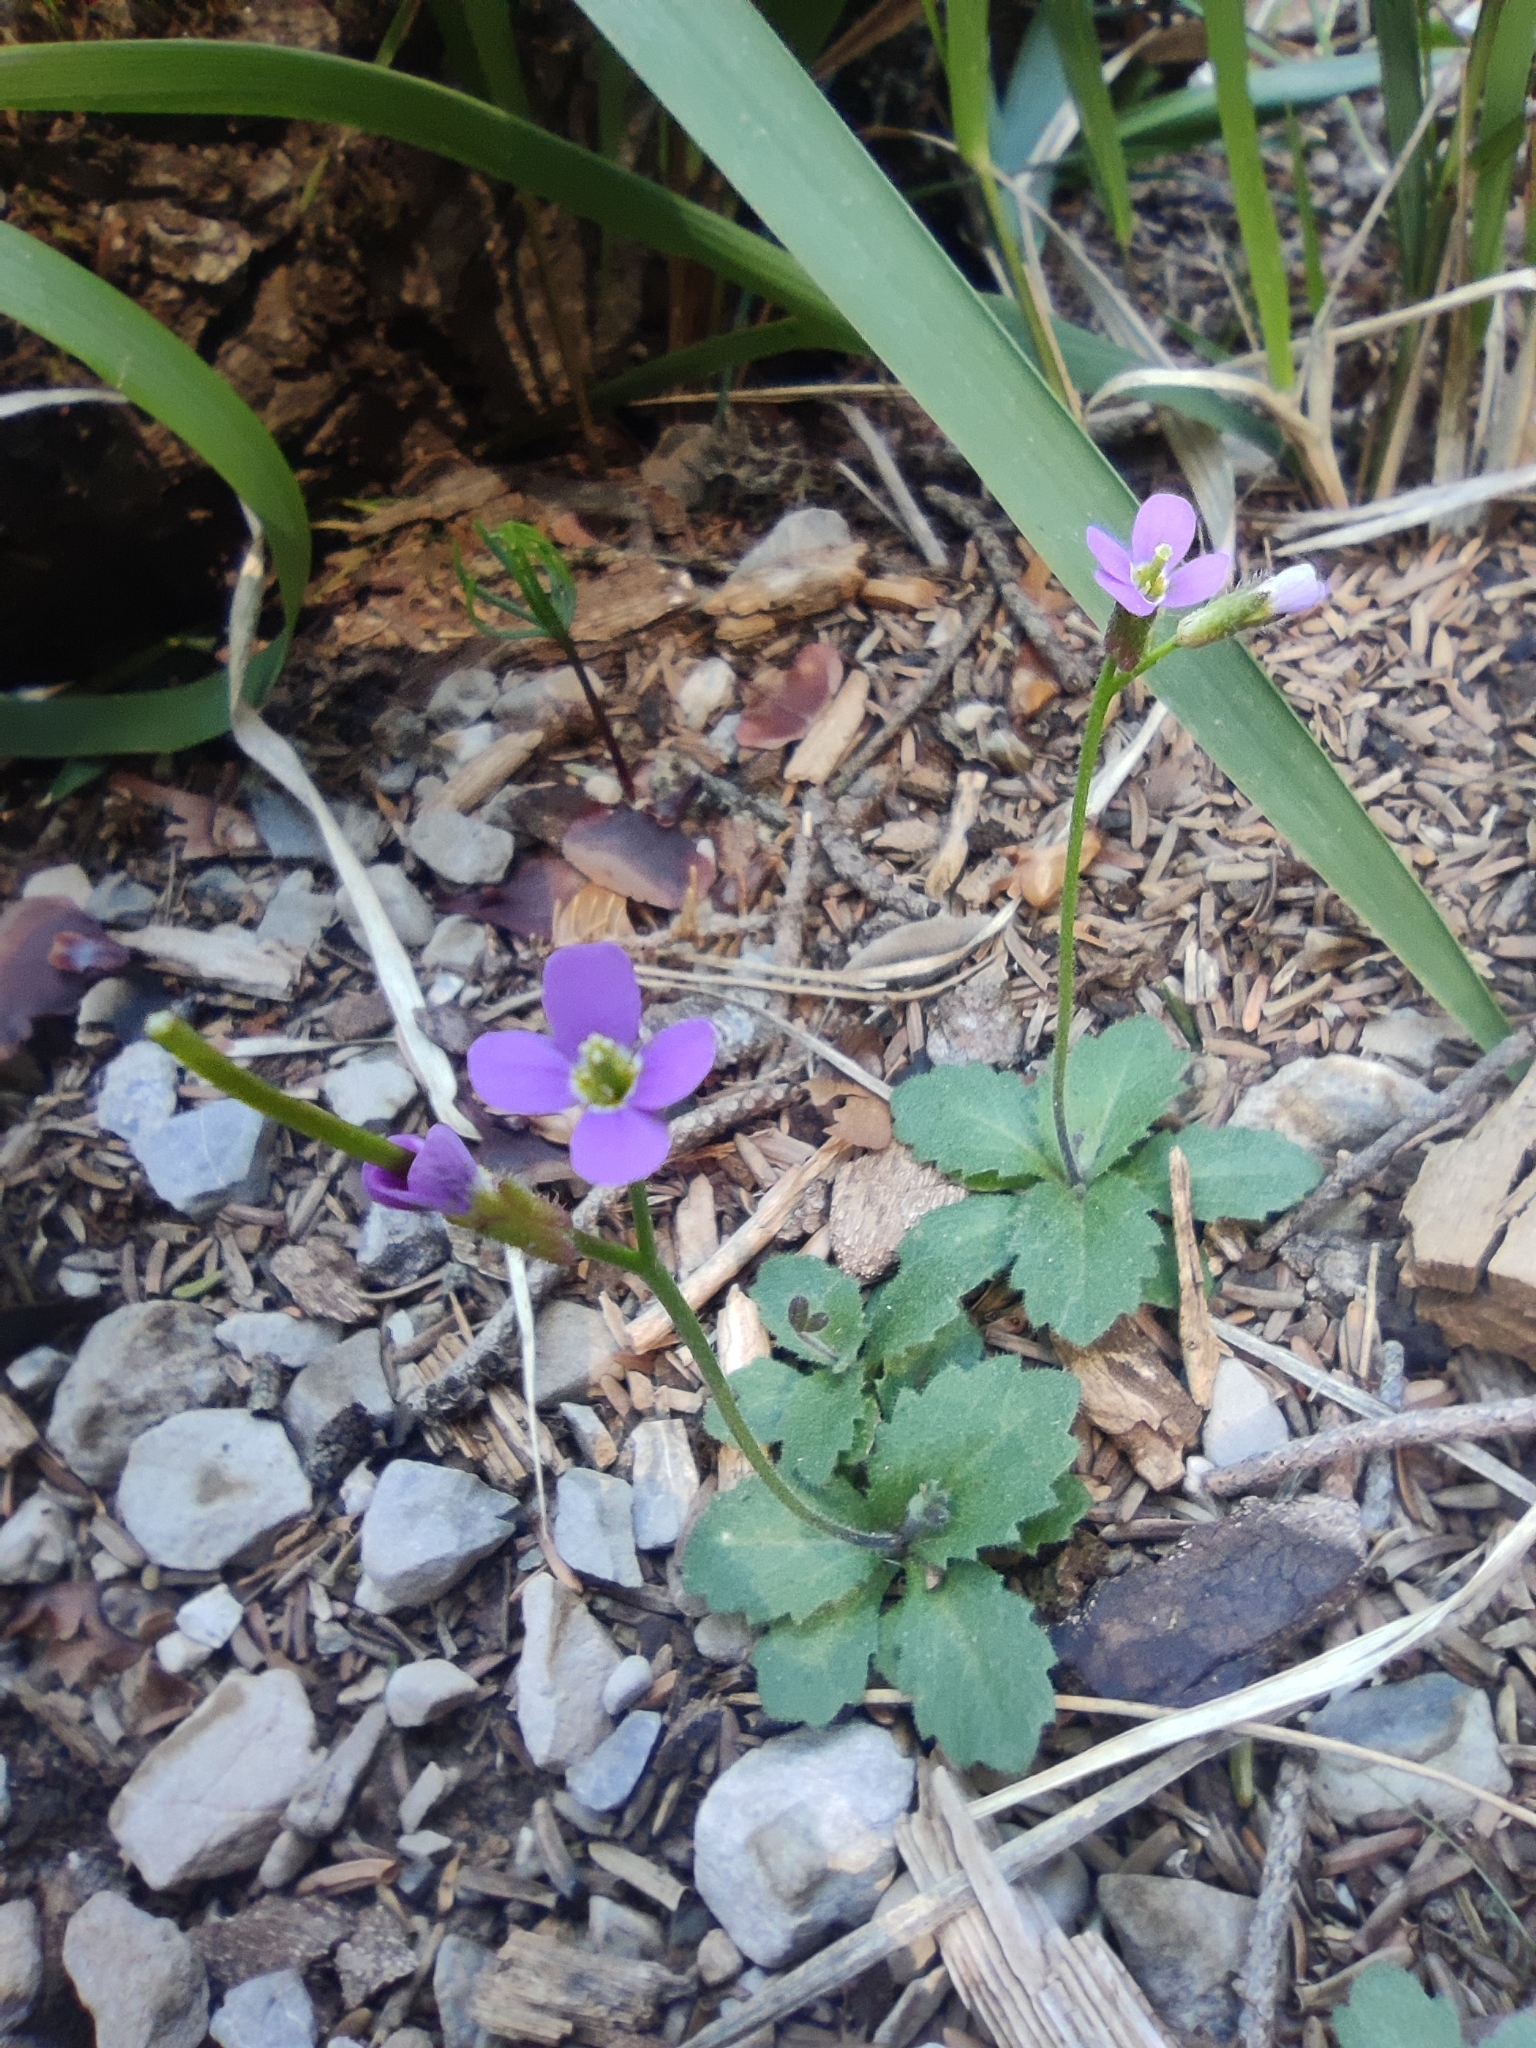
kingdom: Plantae
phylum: Tracheophyta
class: Magnoliopsida
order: Brassicales
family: Brassicaceae
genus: Arabis
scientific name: Arabis verna
